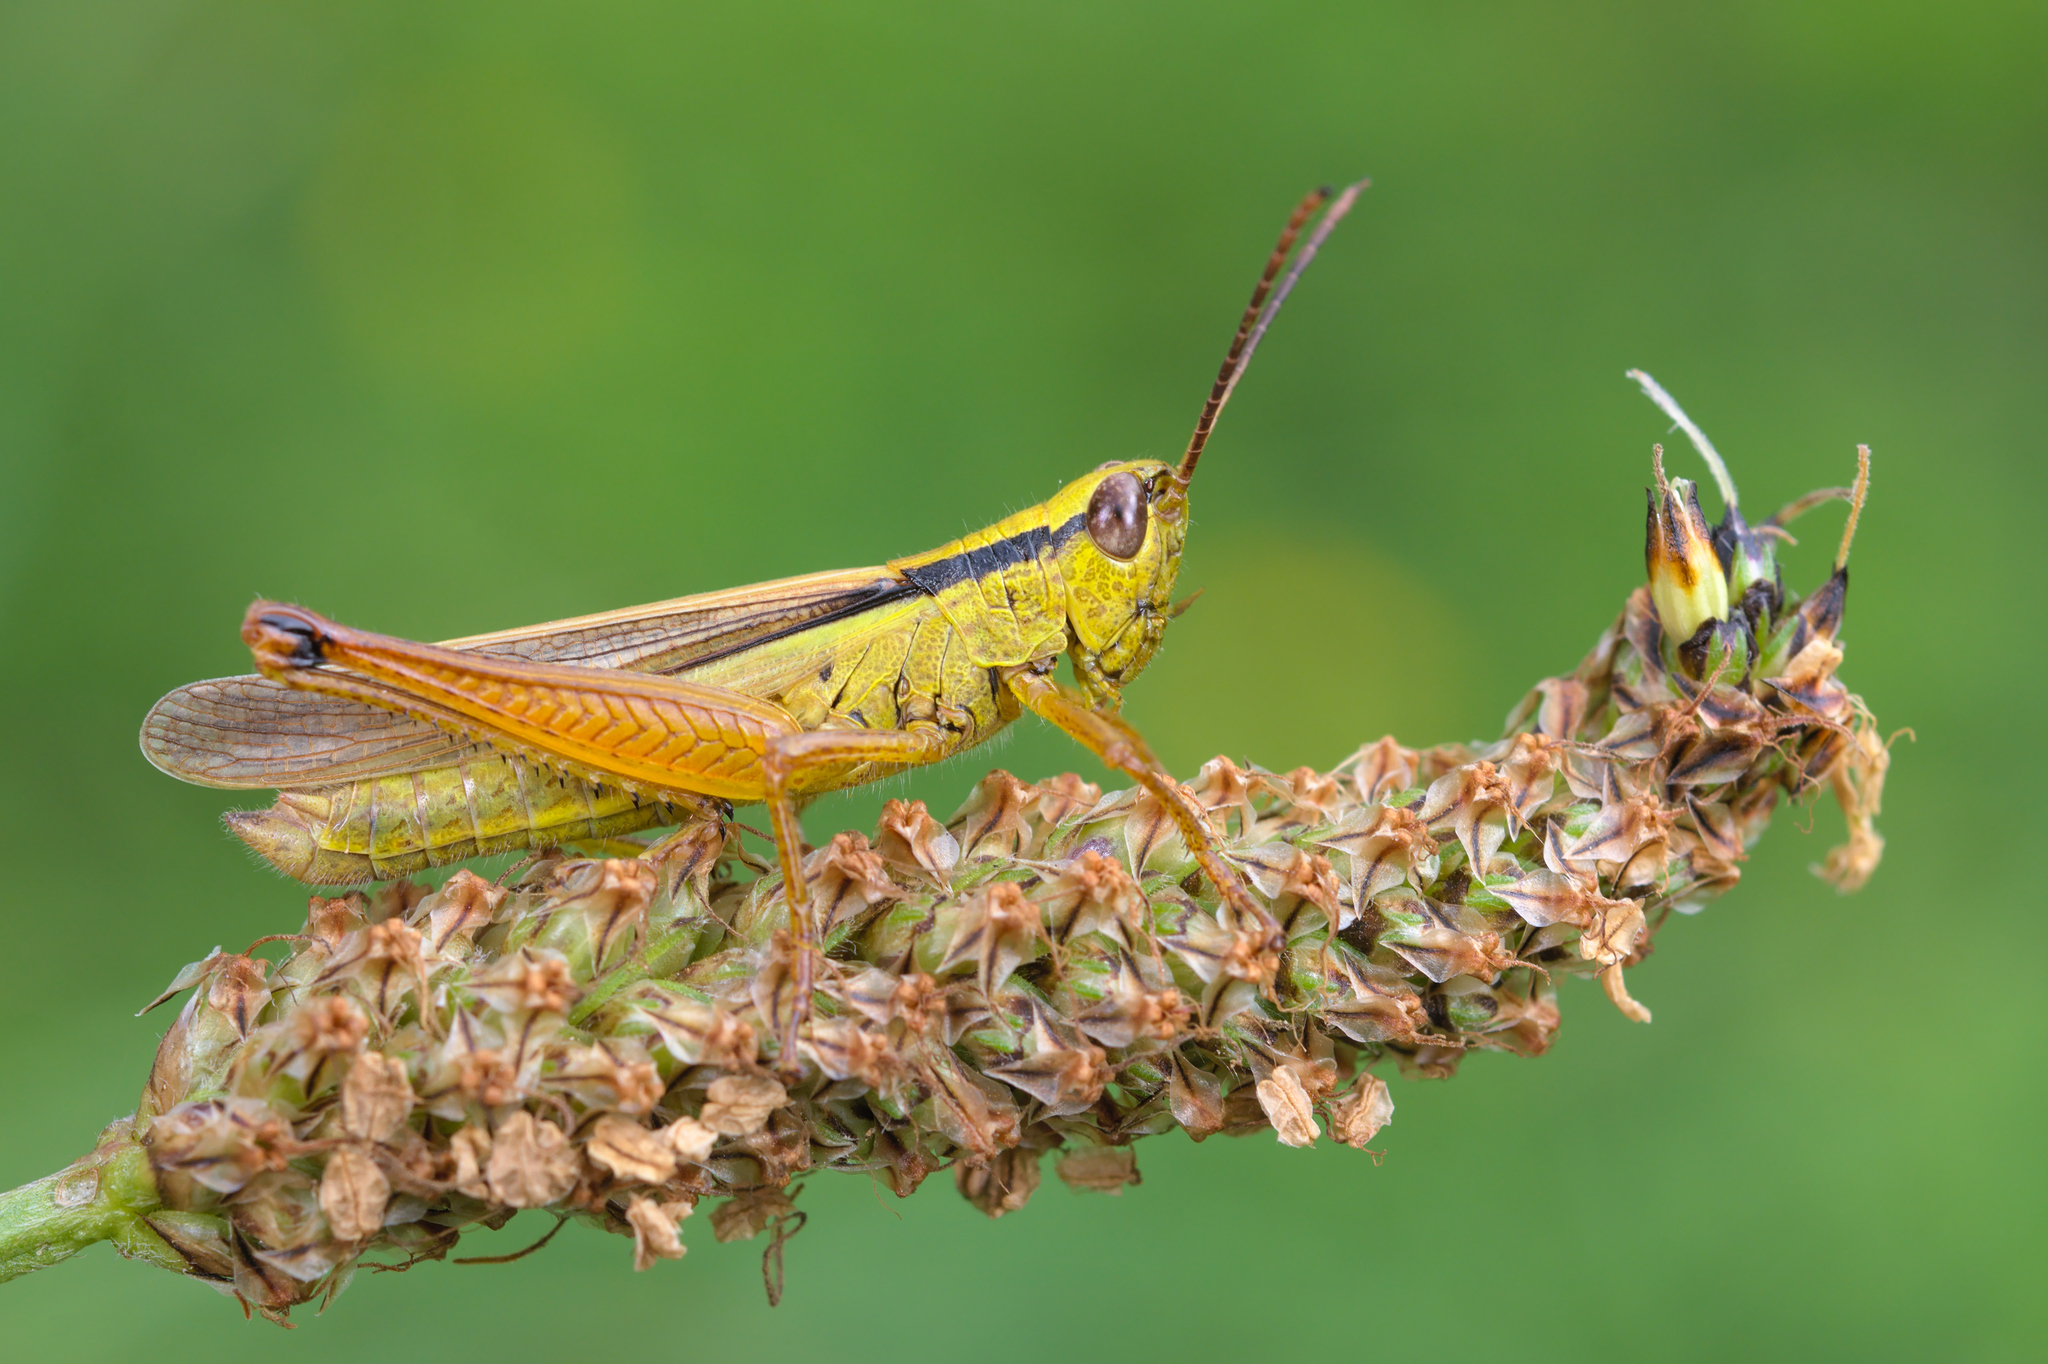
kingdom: Animalia
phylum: Arthropoda
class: Insecta
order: Orthoptera
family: Acrididae
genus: Mecostethus
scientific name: Mecostethus parapleurus
